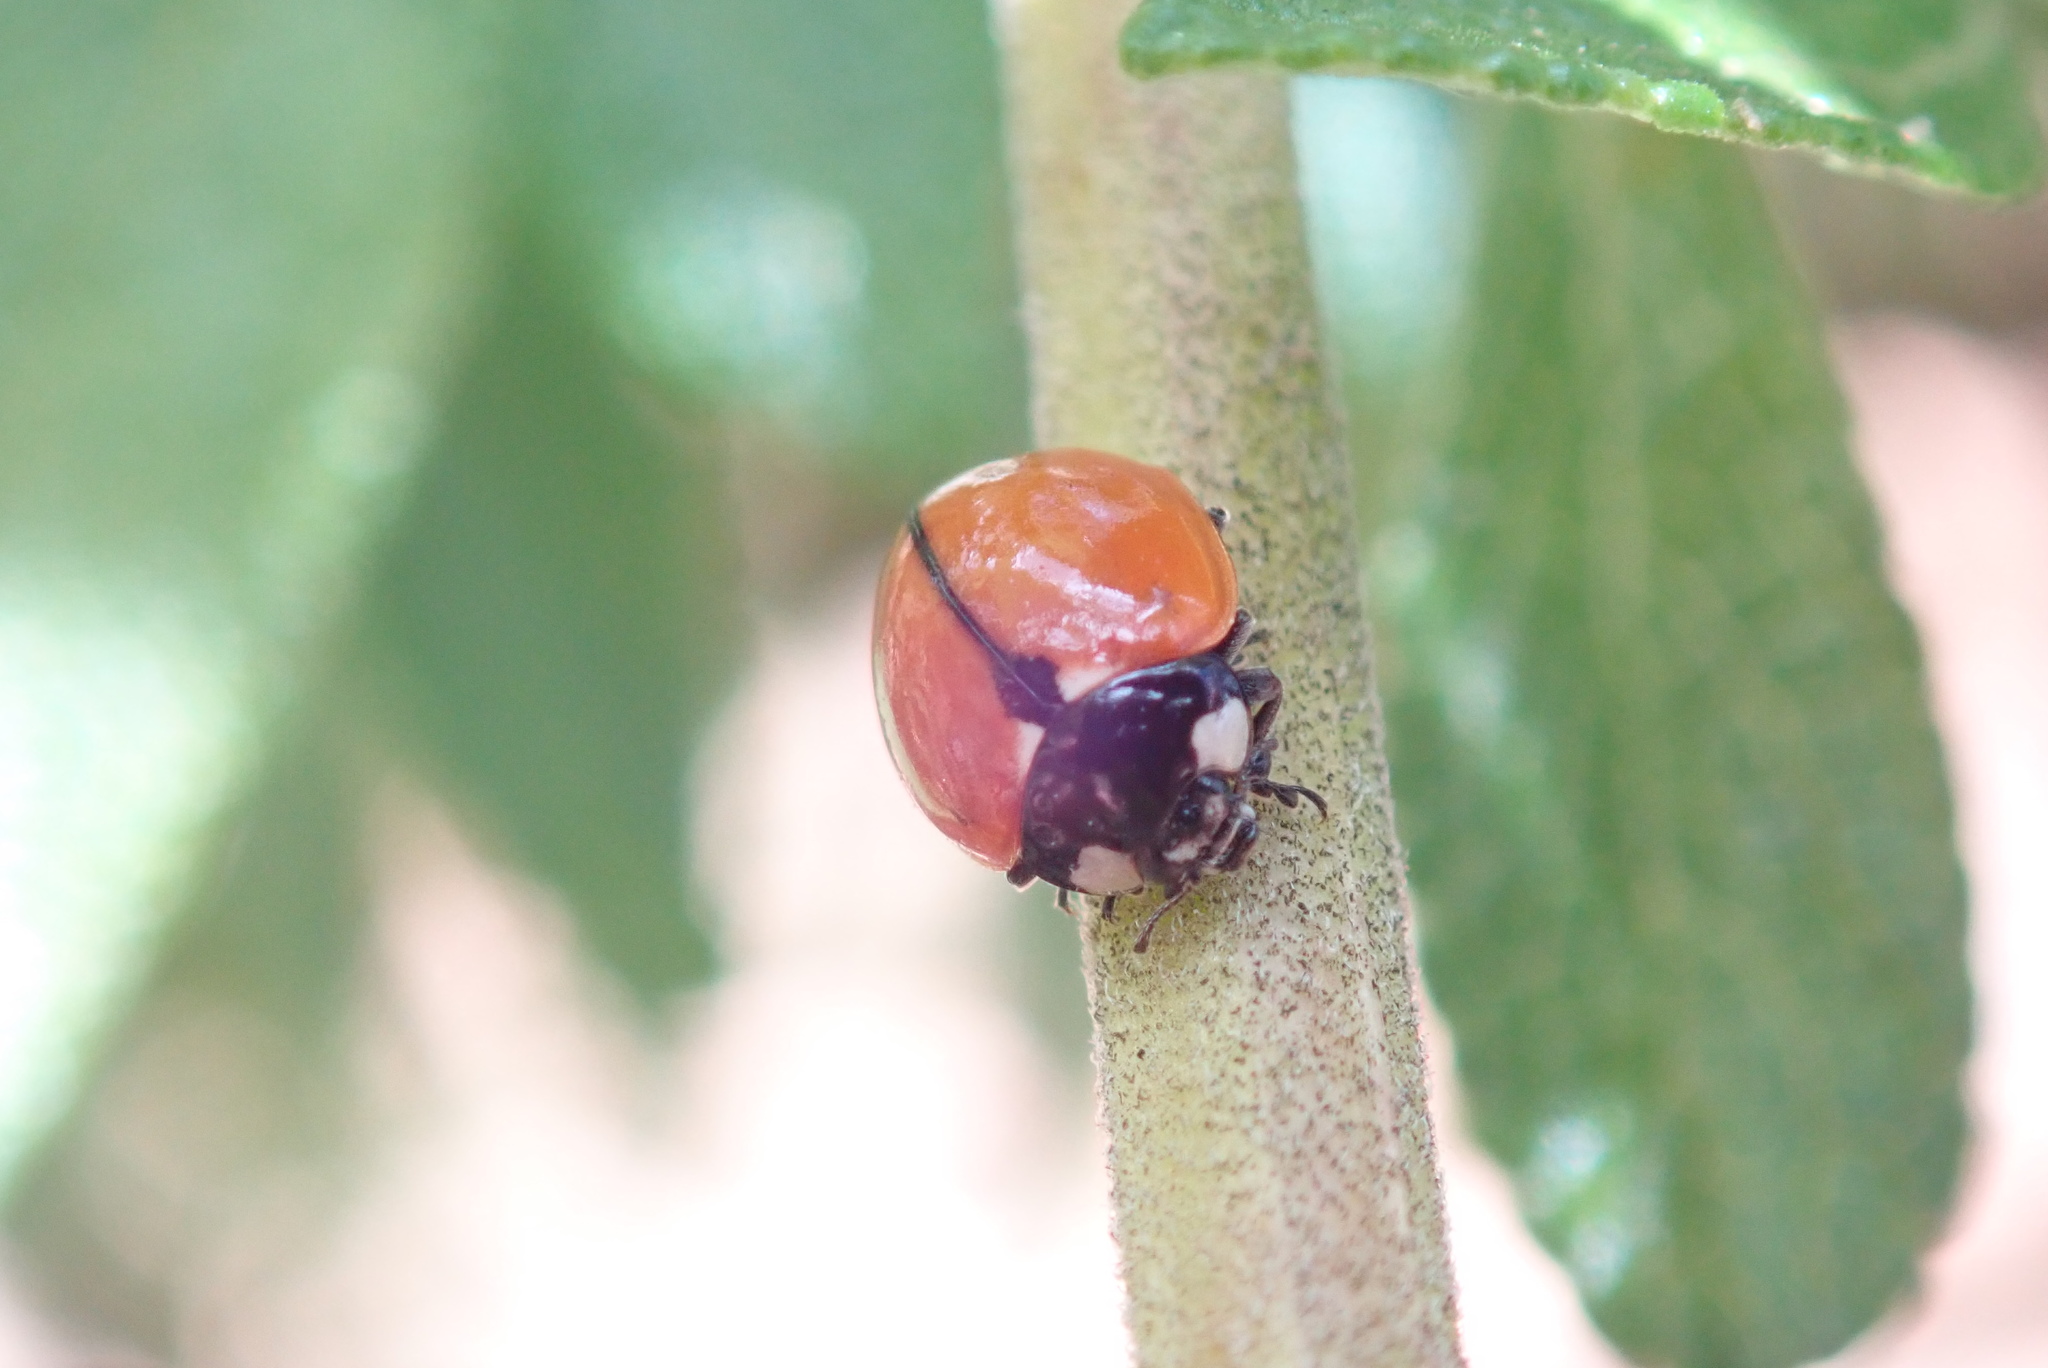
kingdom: Animalia
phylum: Arthropoda
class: Insecta
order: Coleoptera
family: Coccinellidae
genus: Coccinella
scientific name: Coccinella californica
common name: Lady beetle
